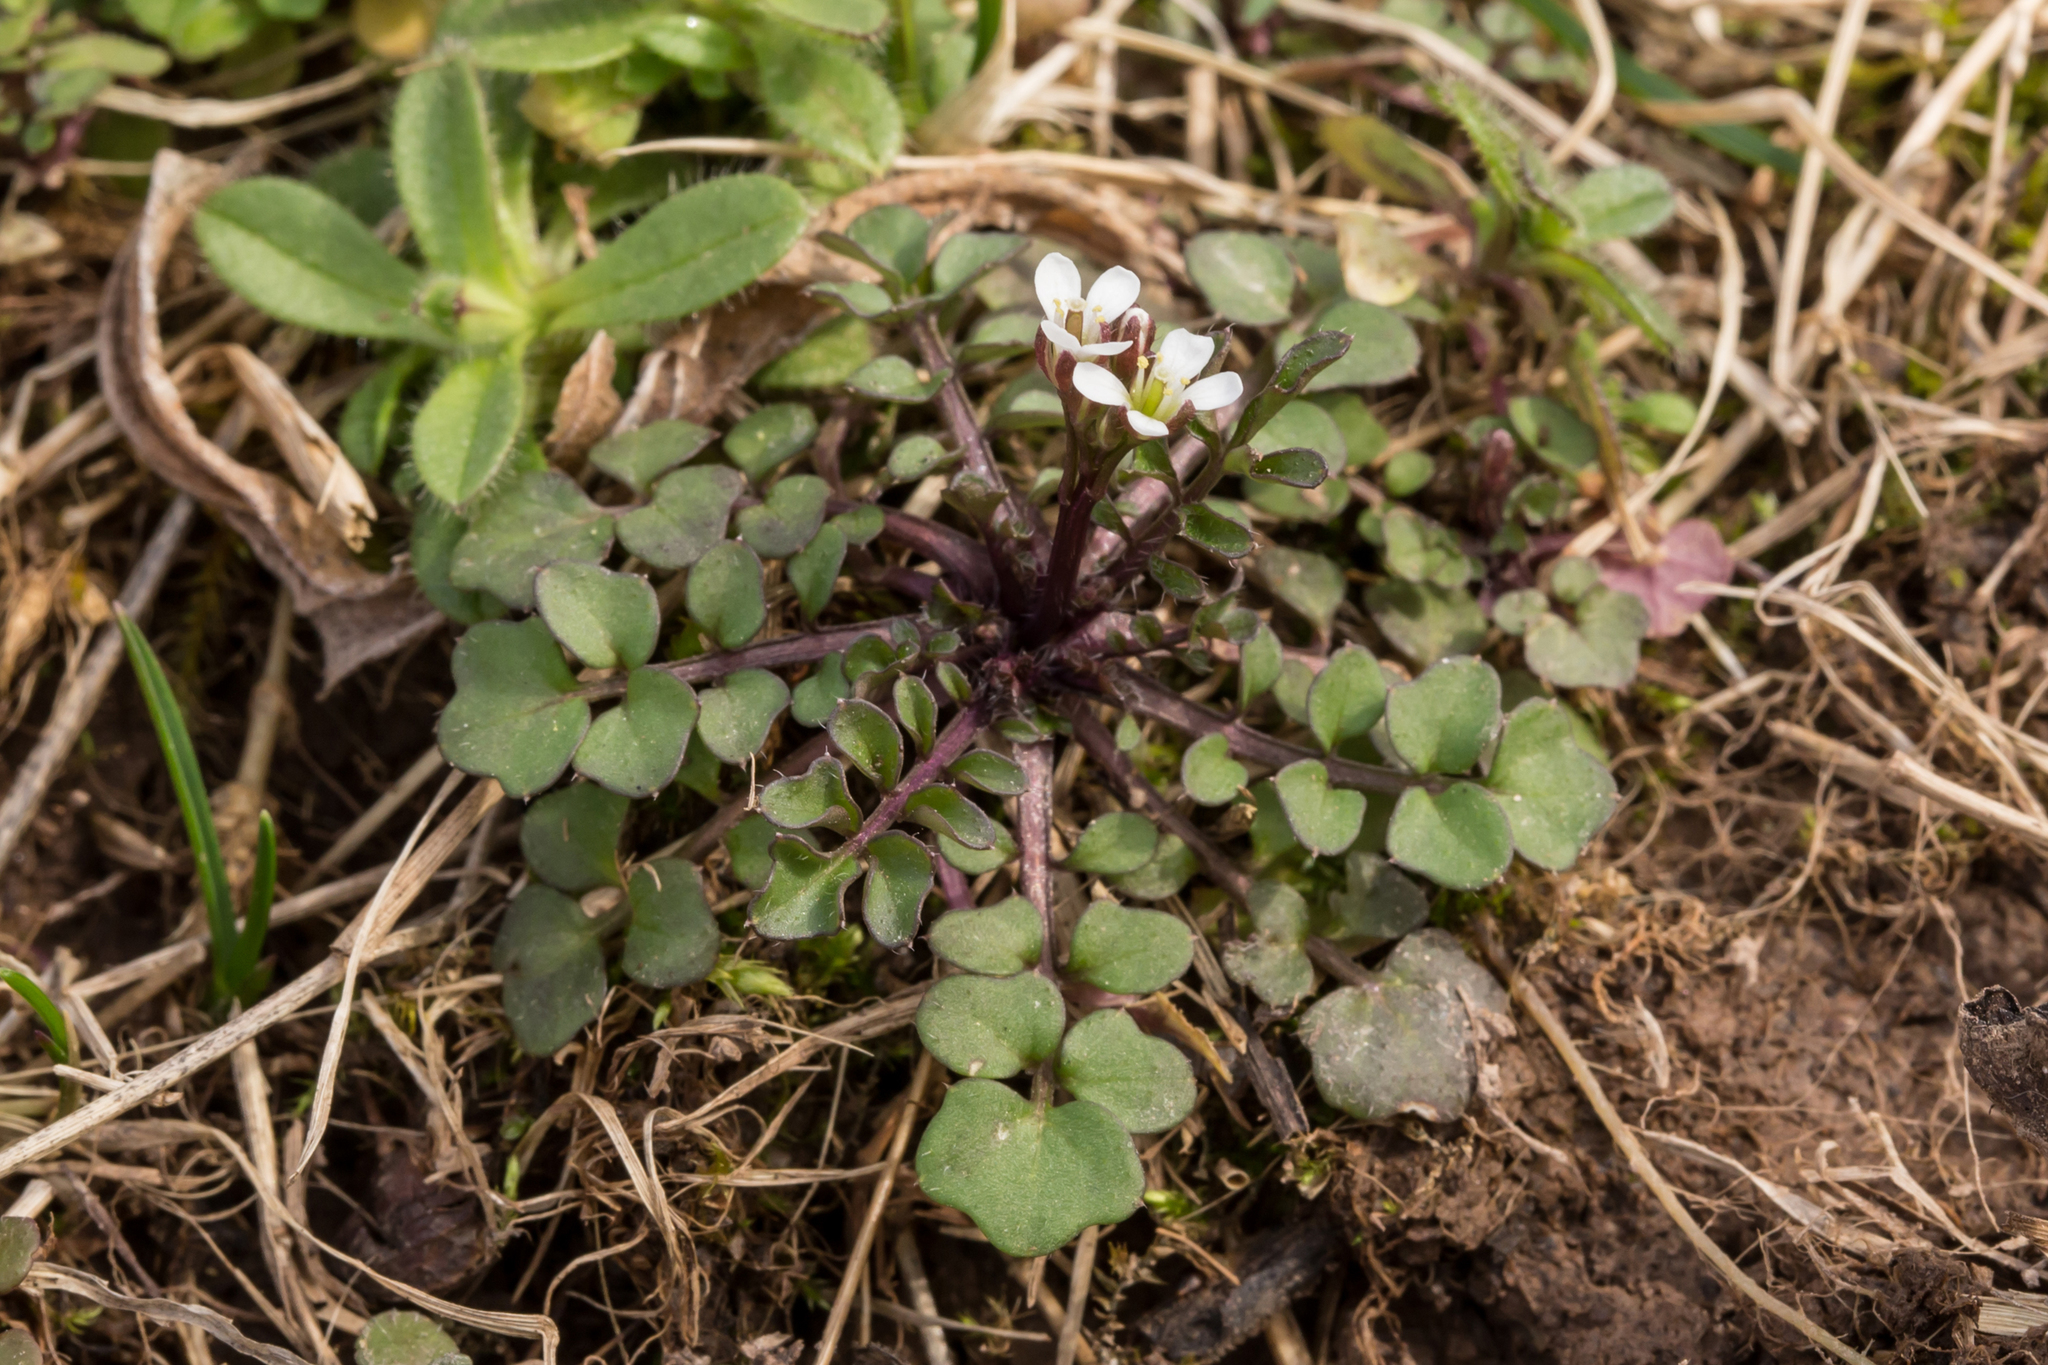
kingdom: Plantae
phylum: Tracheophyta
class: Magnoliopsida
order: Brassicales
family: Brassicaceae
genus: Cardamine
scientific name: Cardamine hirsuta
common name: Hairy bittercress
